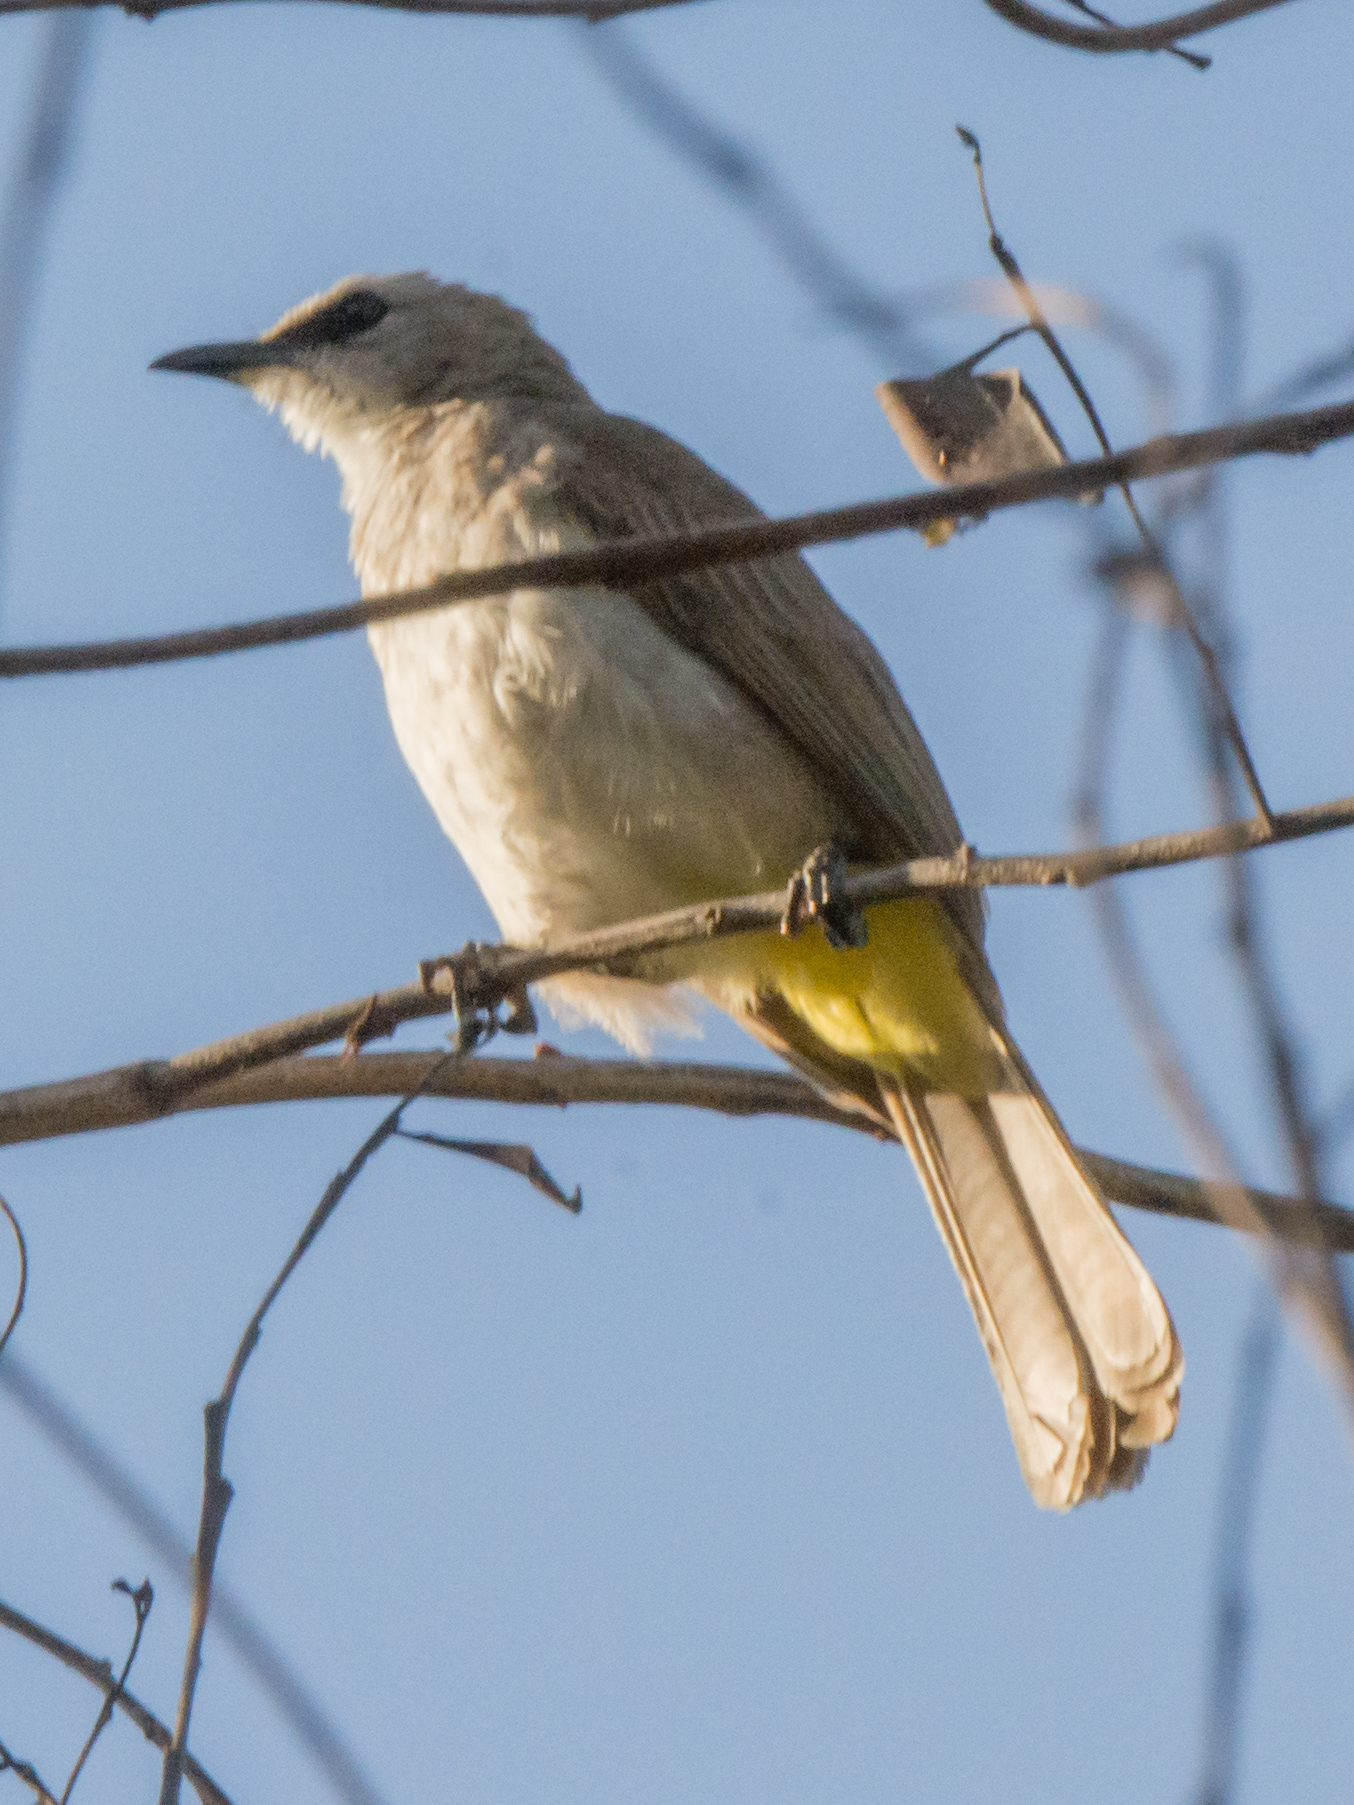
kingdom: Animalia
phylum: Chordata
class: Aves
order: Passeriformes
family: Pycnonotidae
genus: Pycnonotus
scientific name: Pycnonotus goiavier
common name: Yellow-vented bulbul
